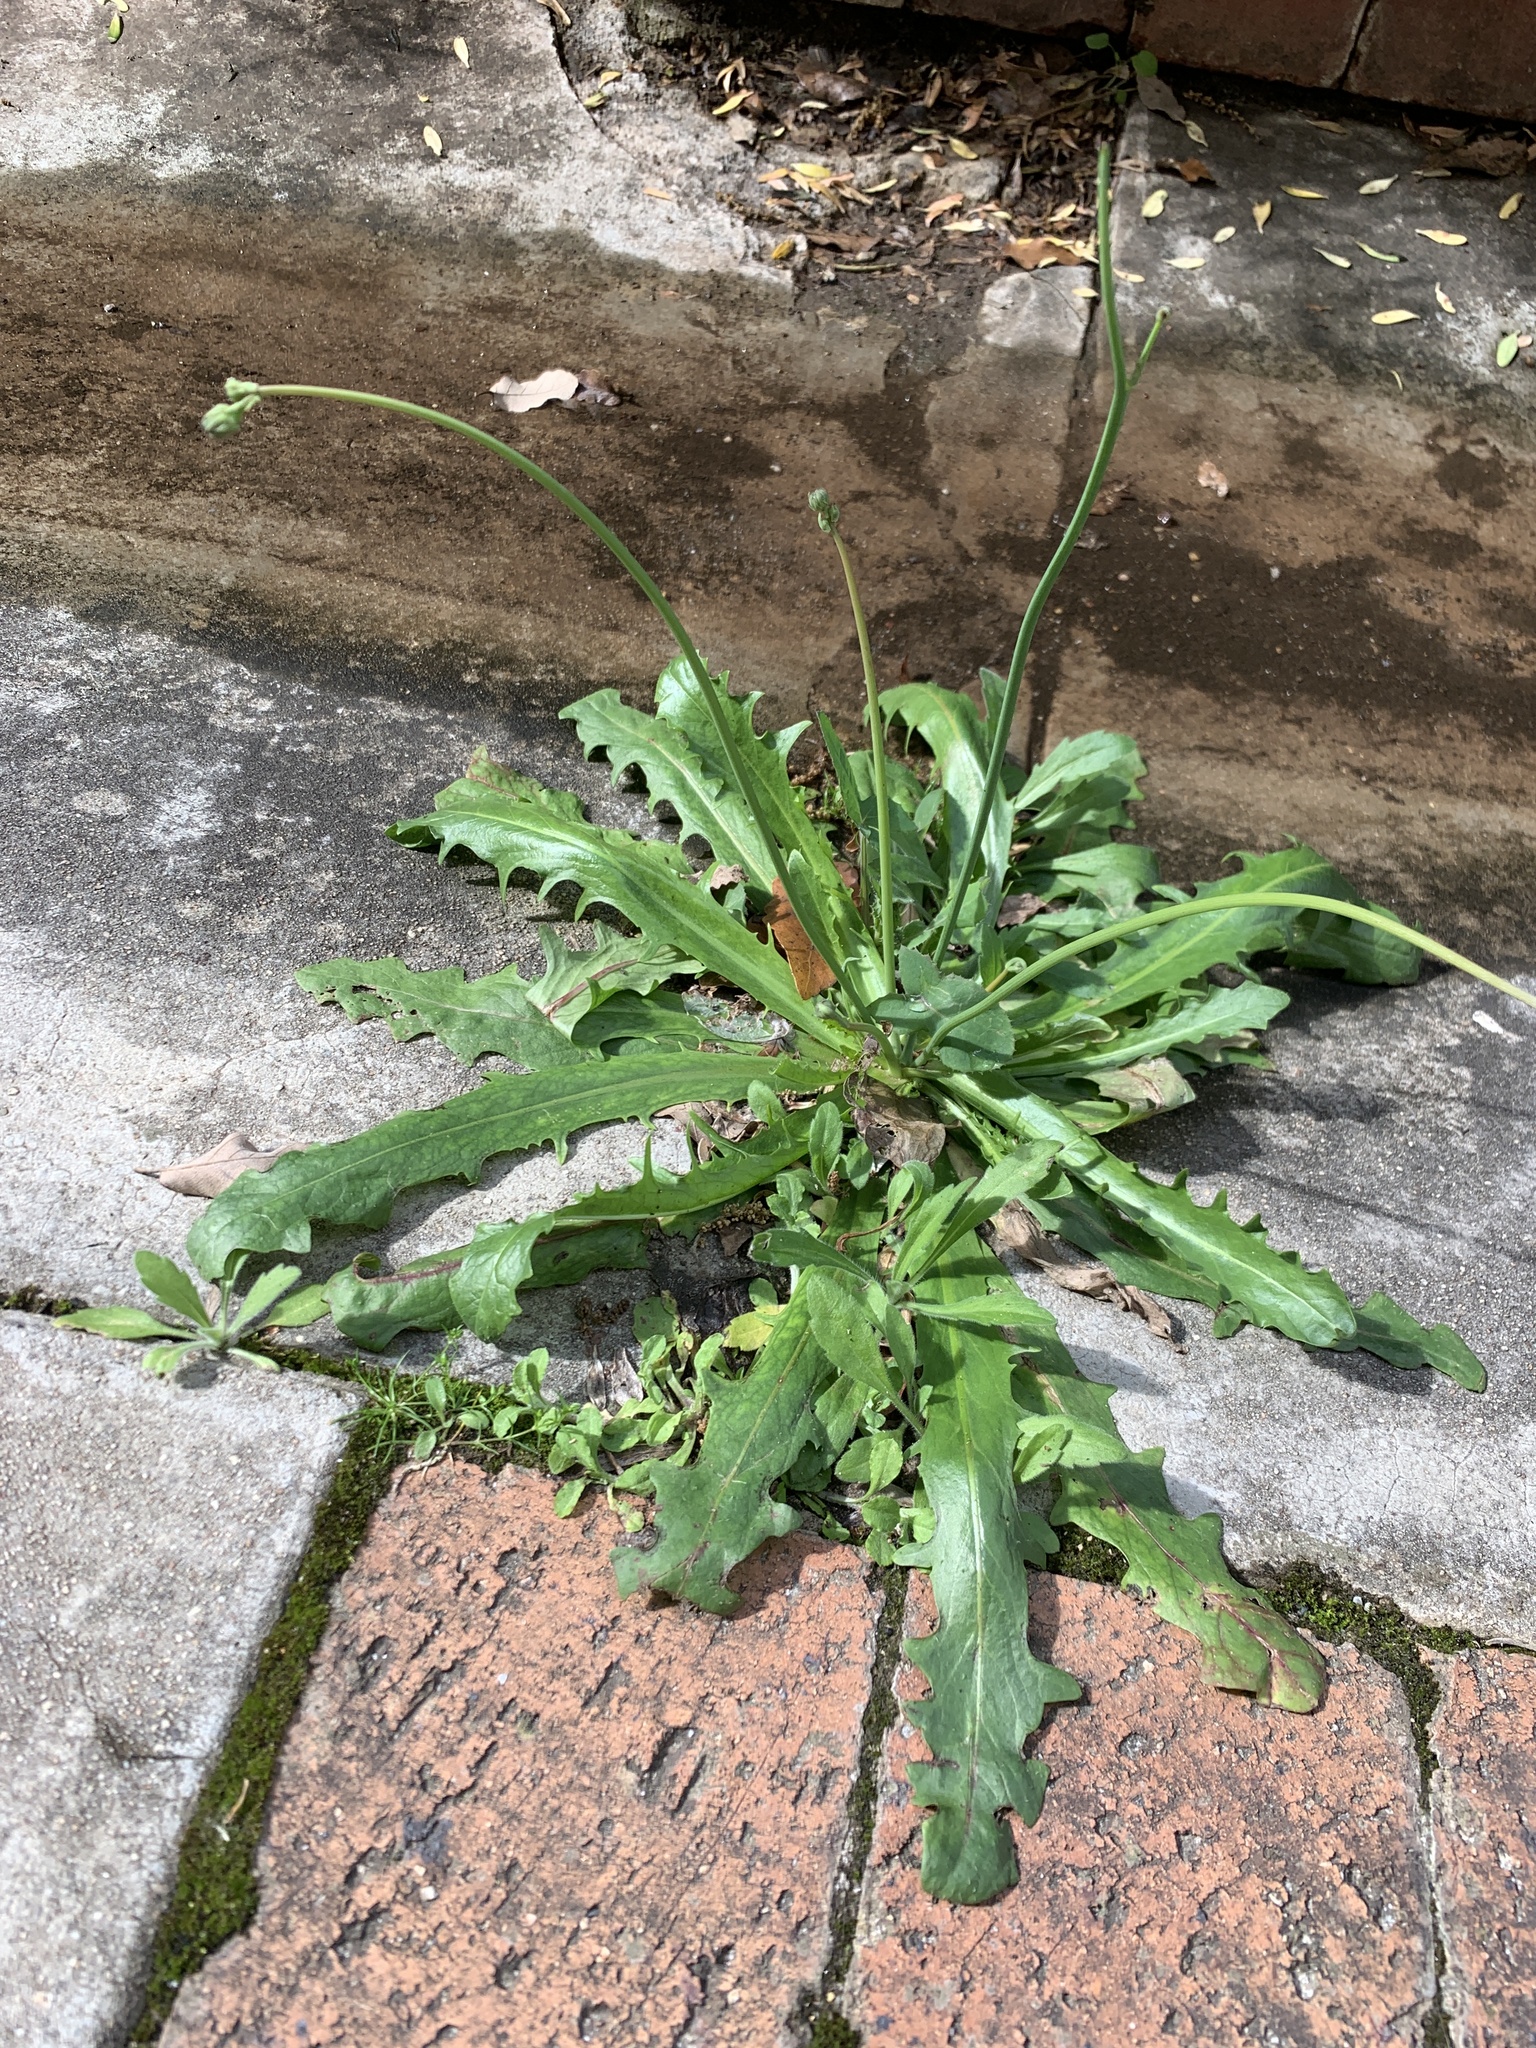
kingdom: Plantae
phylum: Tracheophyta
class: Magnoliopsida
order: Asterales
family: Asteraceae
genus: Hypochaeris
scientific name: Hypochaeris glabra
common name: Smooth catsear
